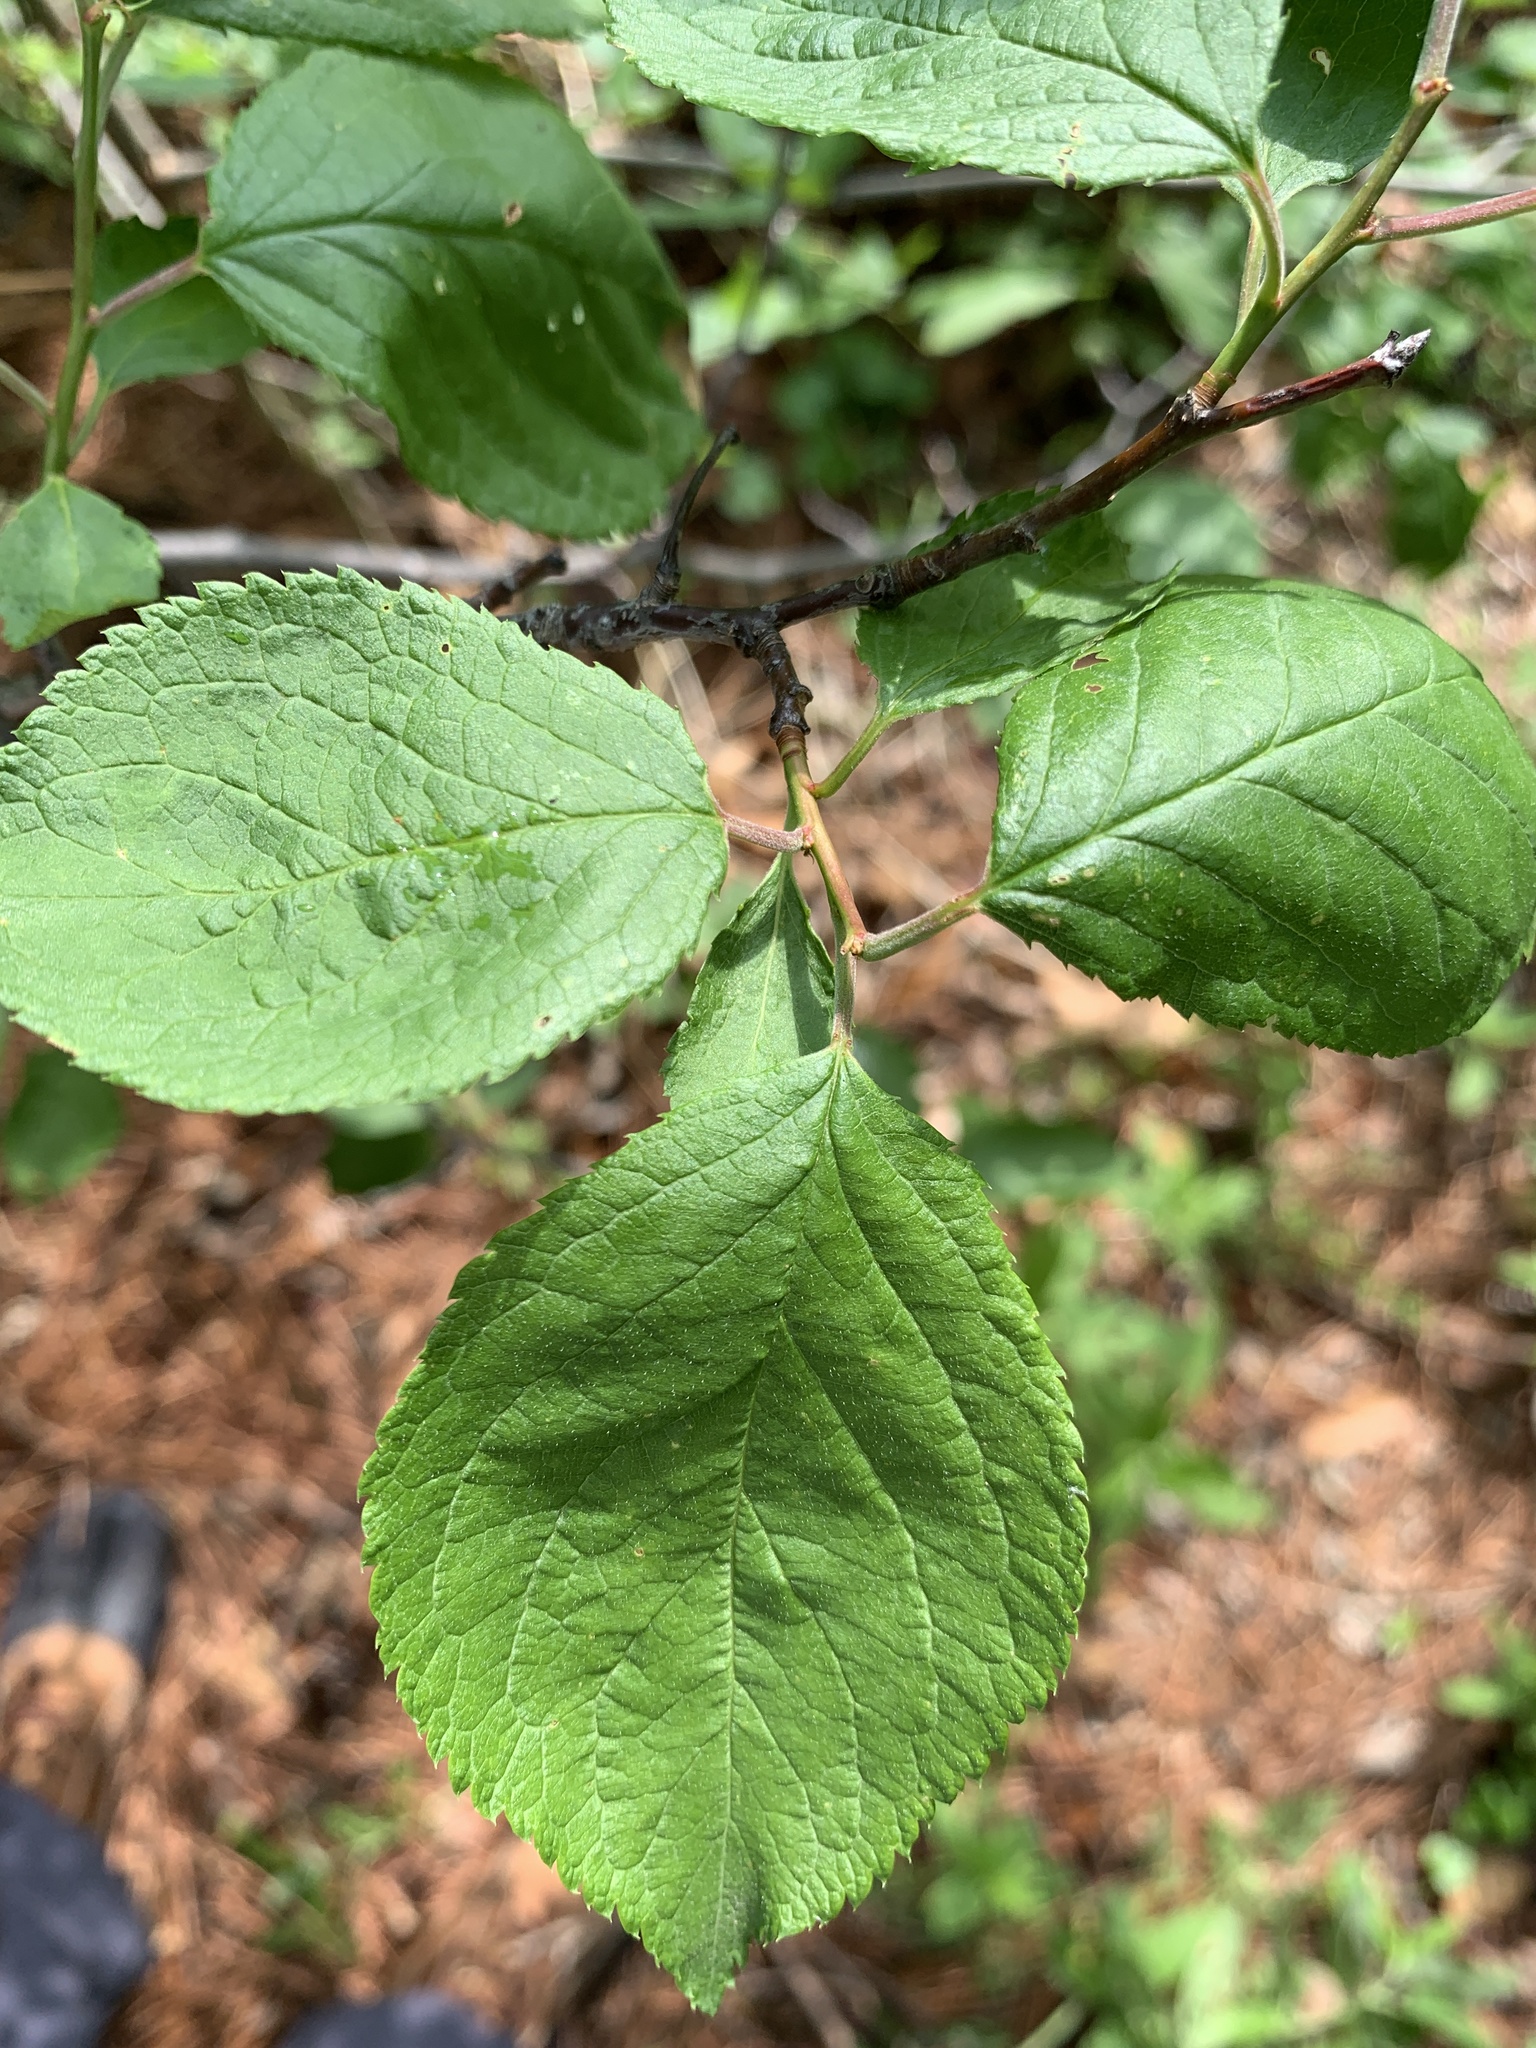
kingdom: Plantae
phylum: Tracheophyta
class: Magnoliopsida
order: Rosales
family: Rosaceae
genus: Prunus
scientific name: Prunus mexicana
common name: Mexican plum
